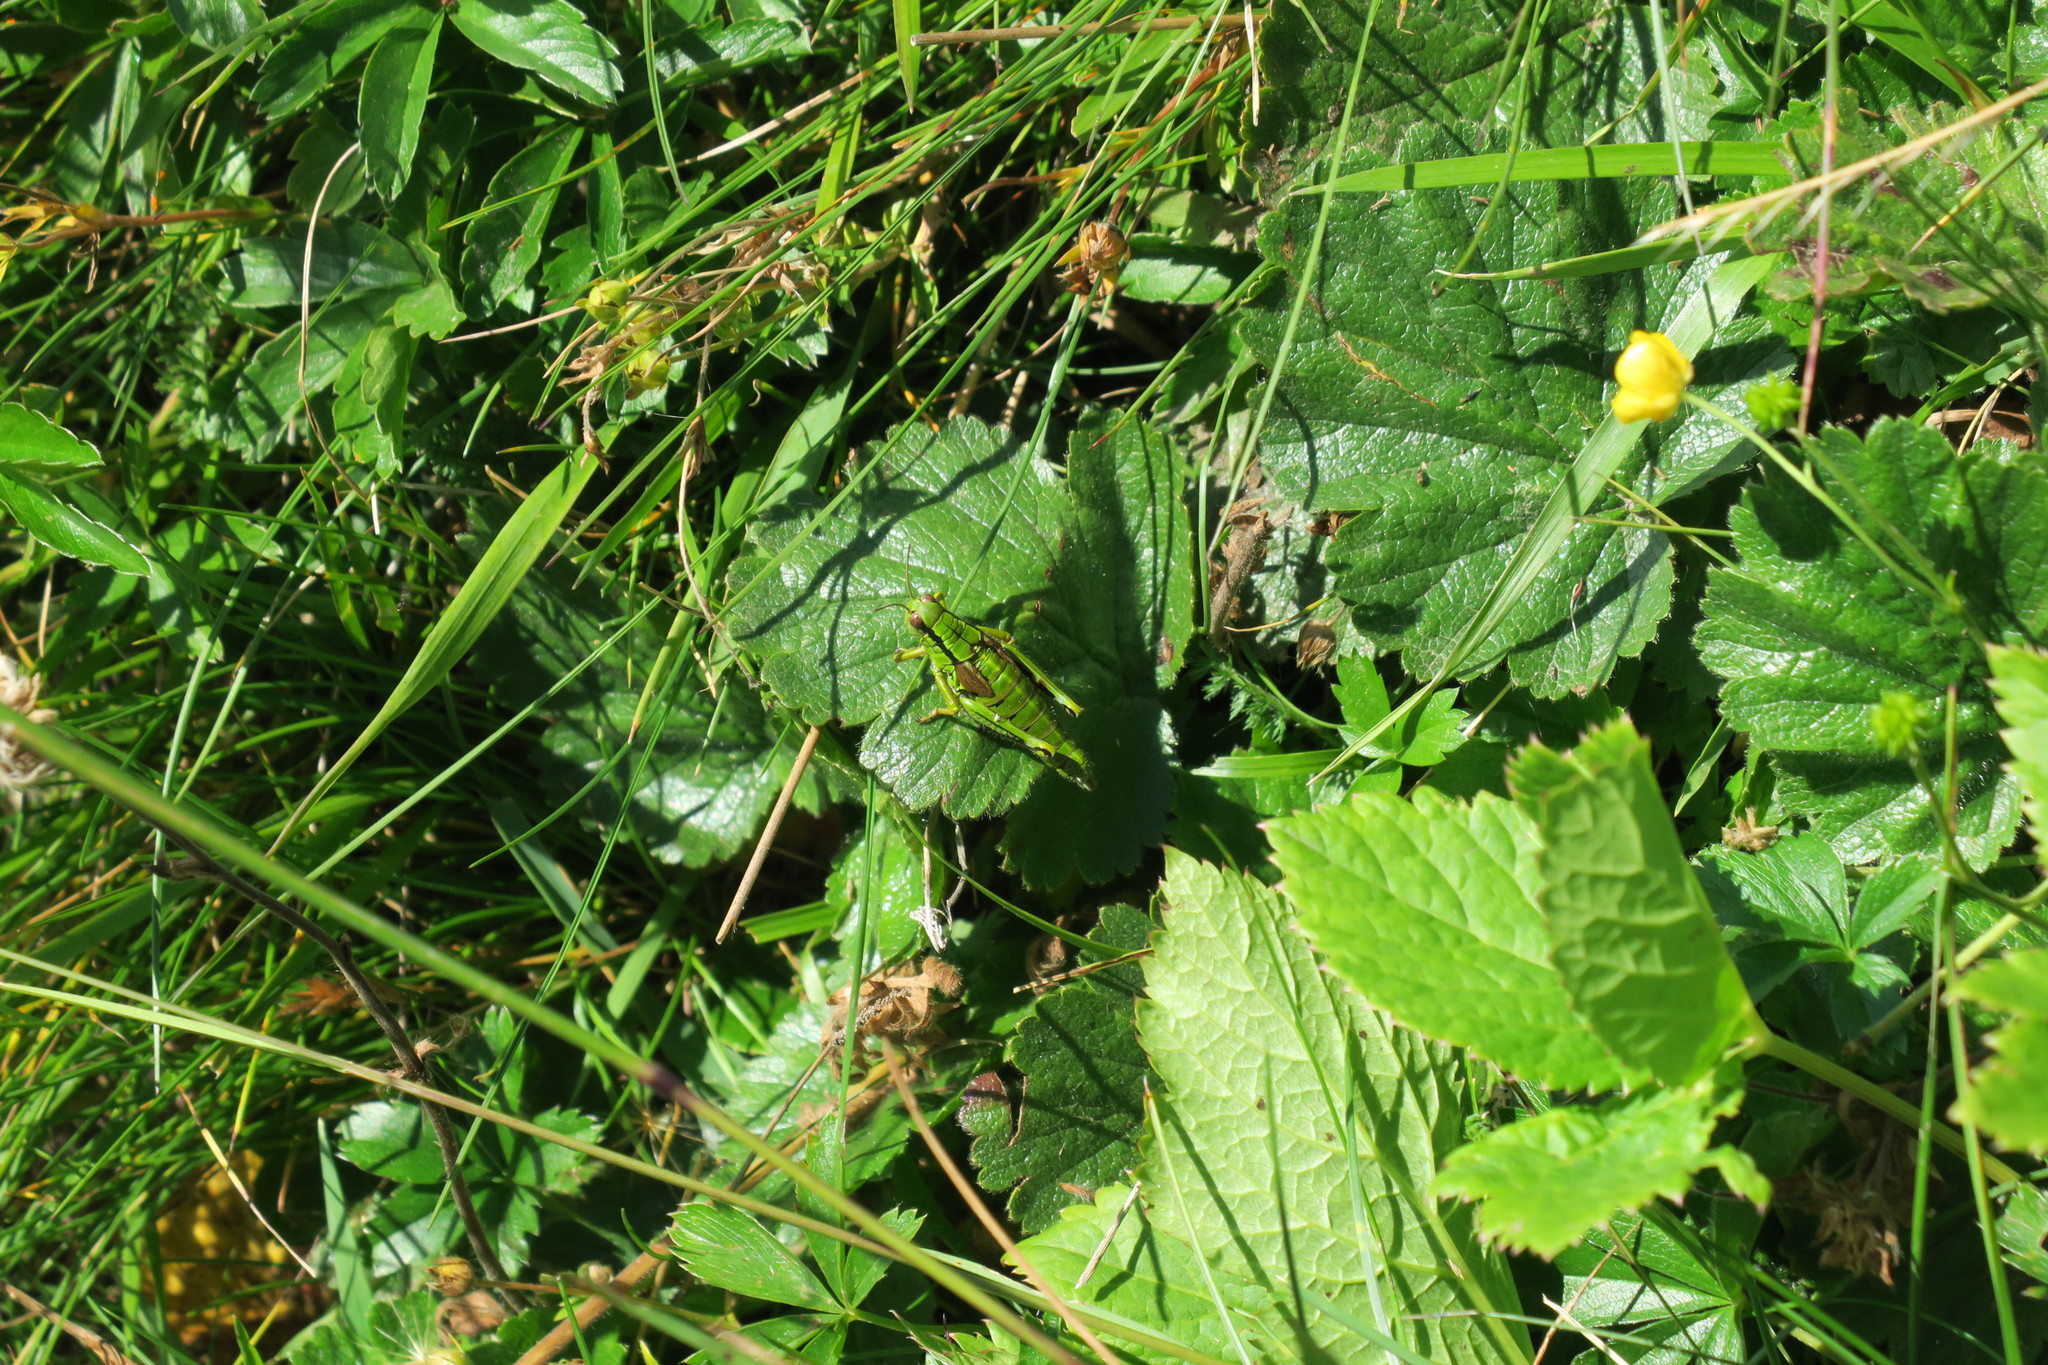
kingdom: Animalia
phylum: Arthropoda
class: Insecta
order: Orthoptera
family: Acrididae
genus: Miramella
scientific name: Miramella alpina
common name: Green mountain grasshopper
